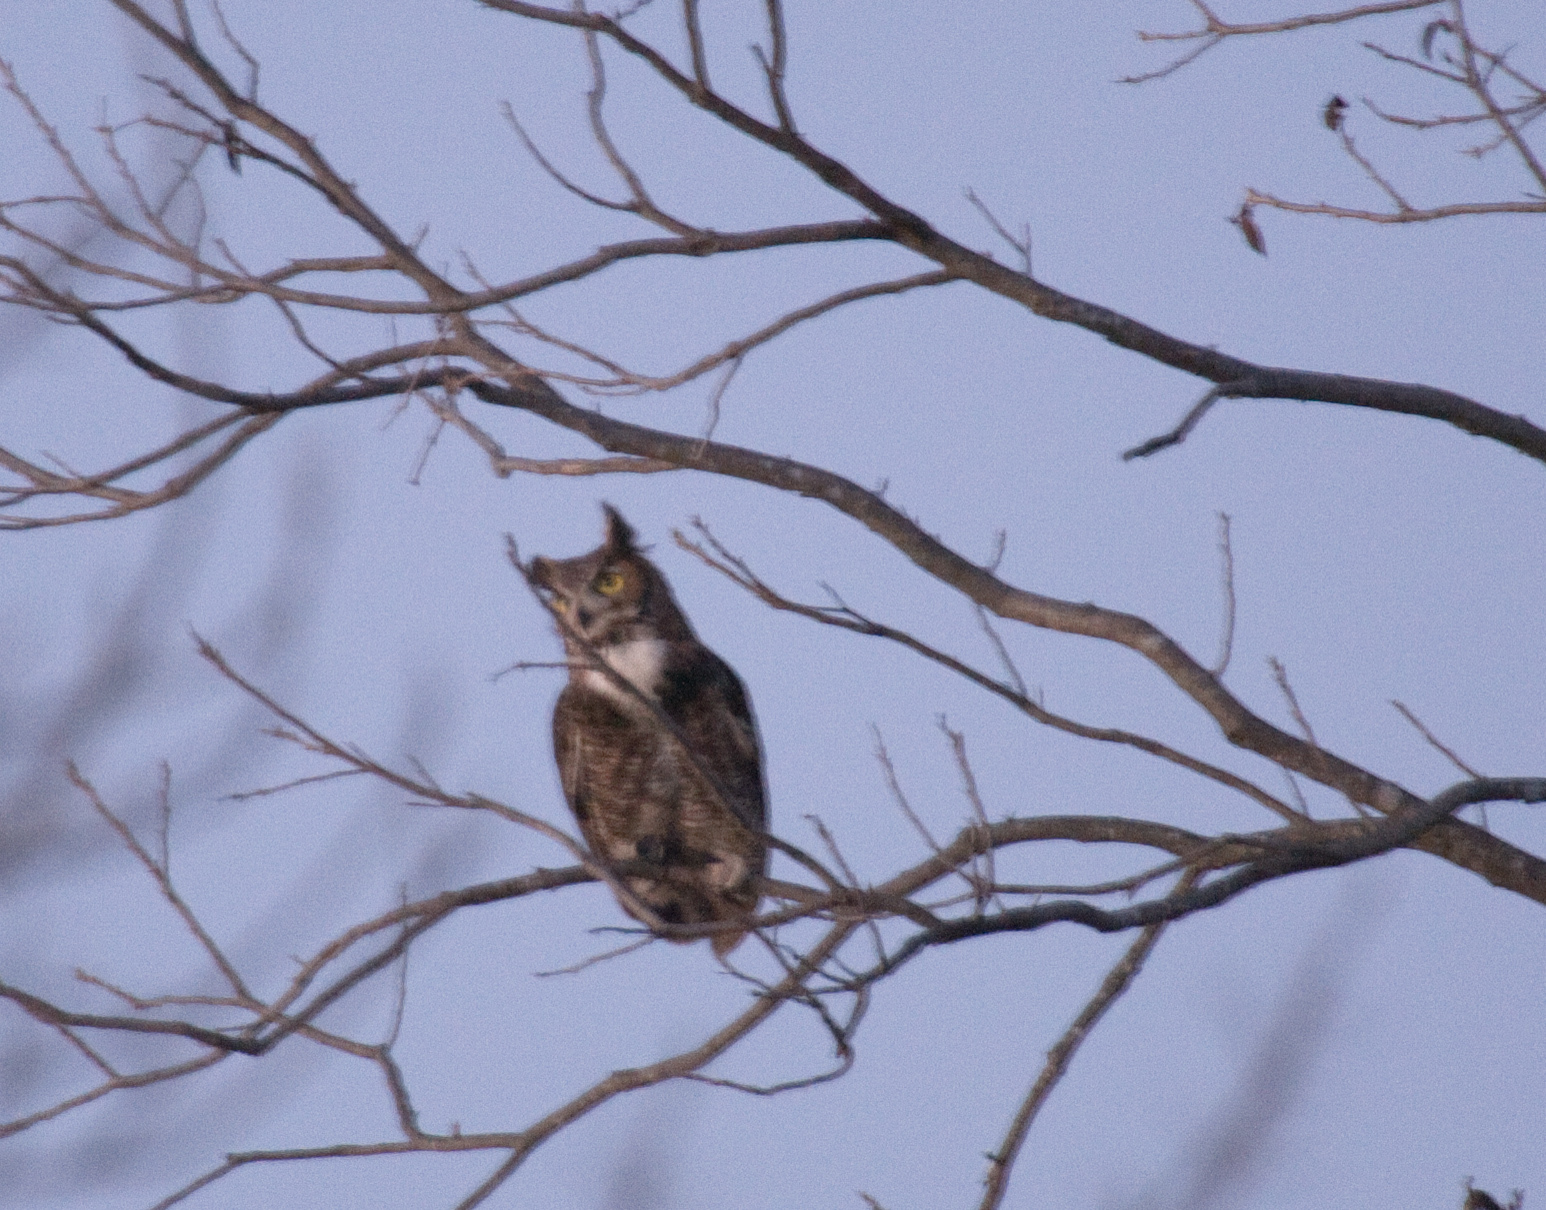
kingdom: Animalia
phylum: Chordata
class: Aves
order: Strigiformes
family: Strigidae
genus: Bubo
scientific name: Bubo virginianus
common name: Great horned owl
